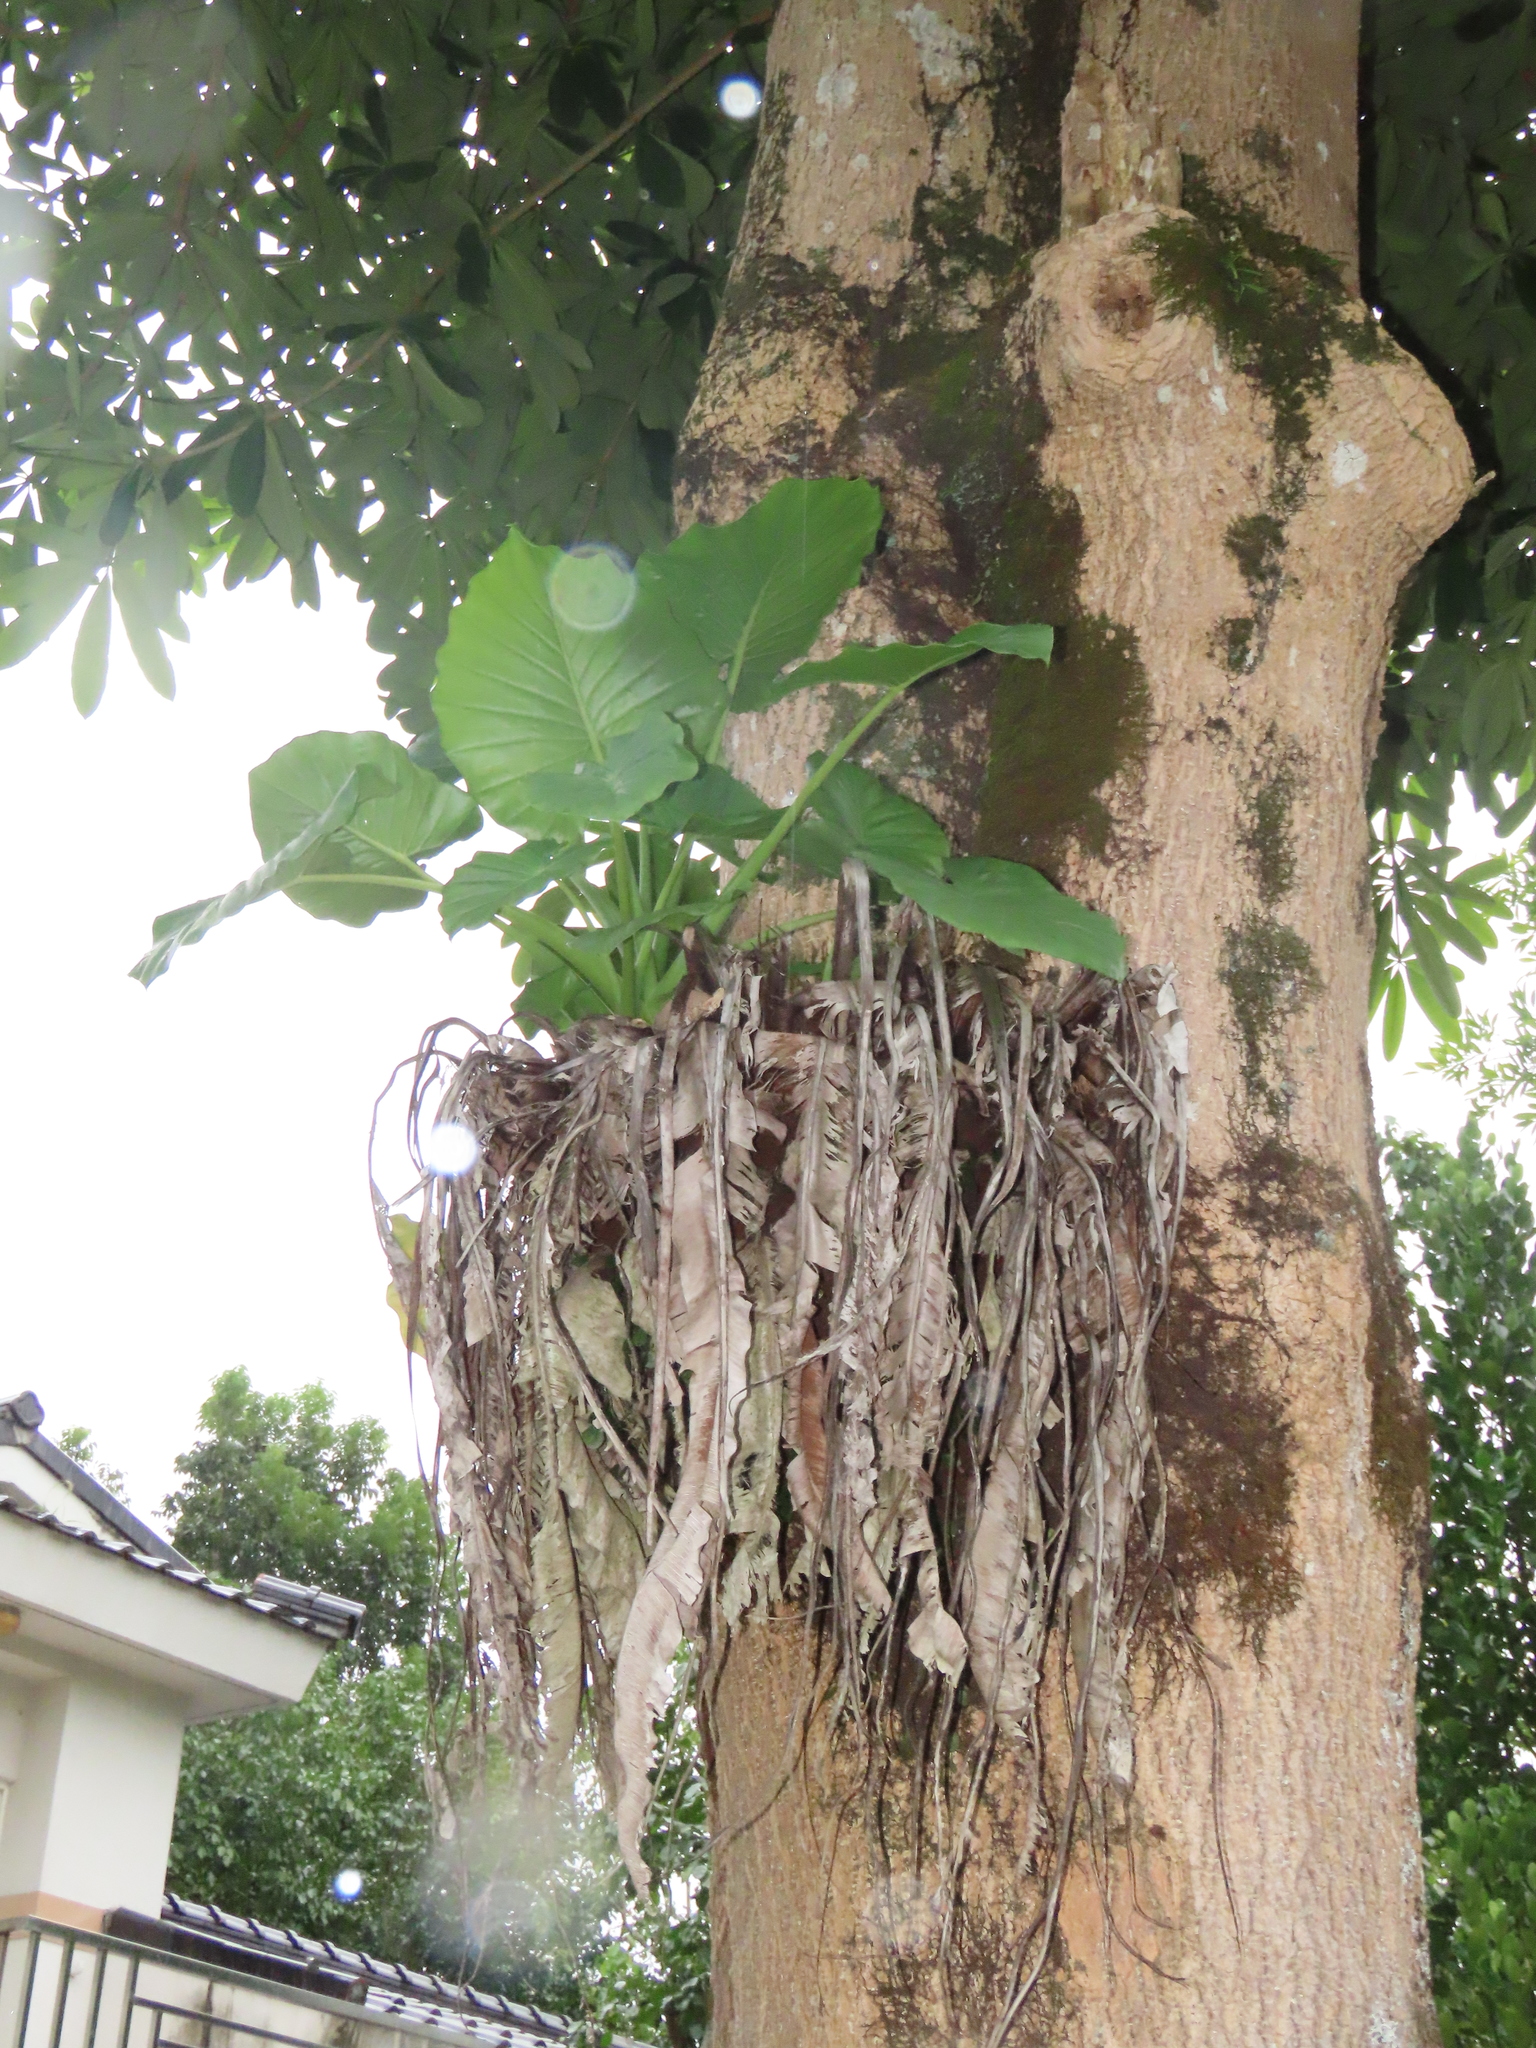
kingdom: Plantae
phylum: Tracheophyta
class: Liliopsida
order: Alismatales
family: Araceae
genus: Alocasia
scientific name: Alocasia odora
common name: Asian taro
